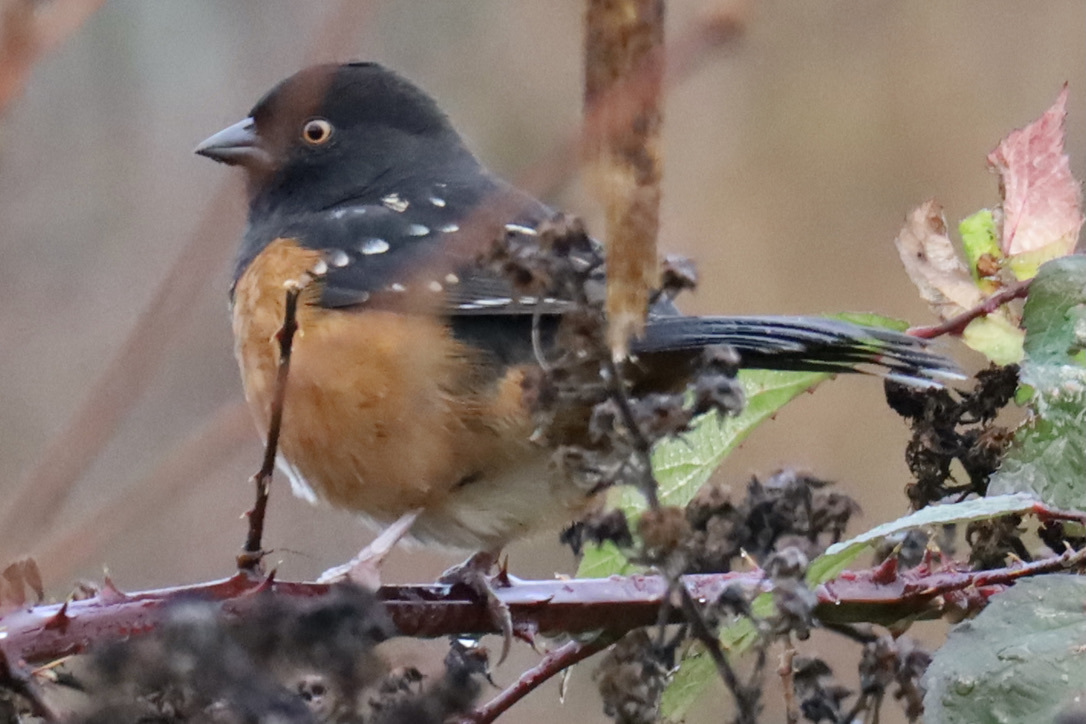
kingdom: Animalia
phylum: Chordata
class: Aves
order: Passeriformes
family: Passerellidae
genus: Pipilo
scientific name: Pipilo maculatus
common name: Spotted towhee
